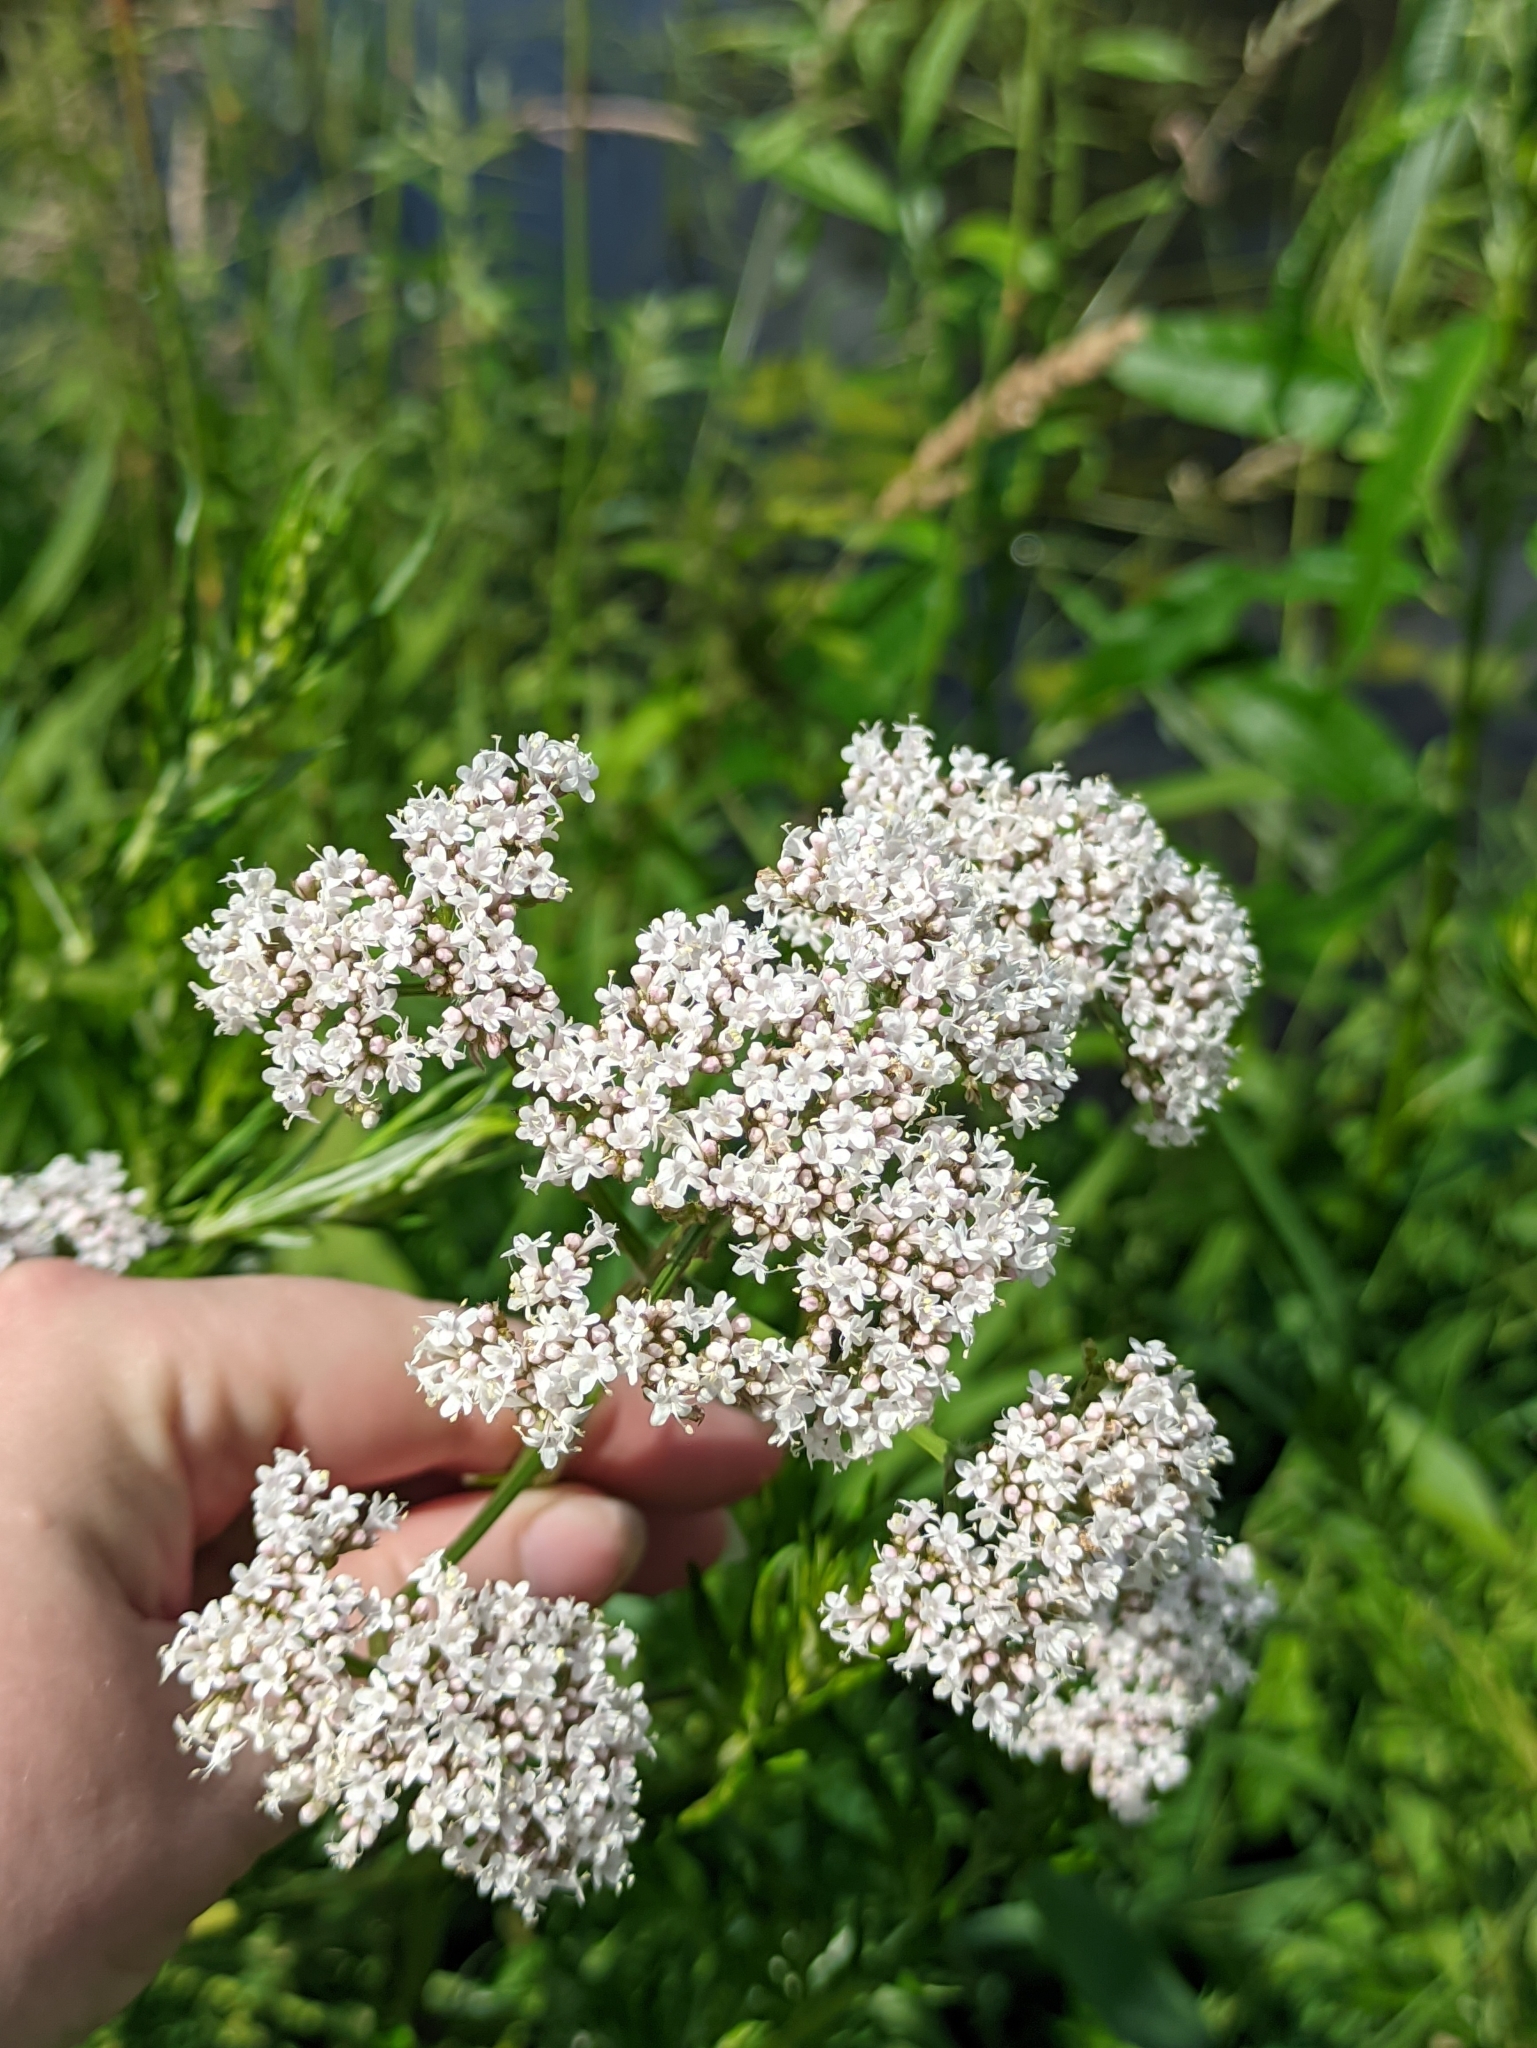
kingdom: Plantae
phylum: Tracheophyta
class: Magnoliopsida
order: Dipsacales
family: Caprifoliaceae
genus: Valeriana
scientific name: Valeriana officinalis
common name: Common valerian
